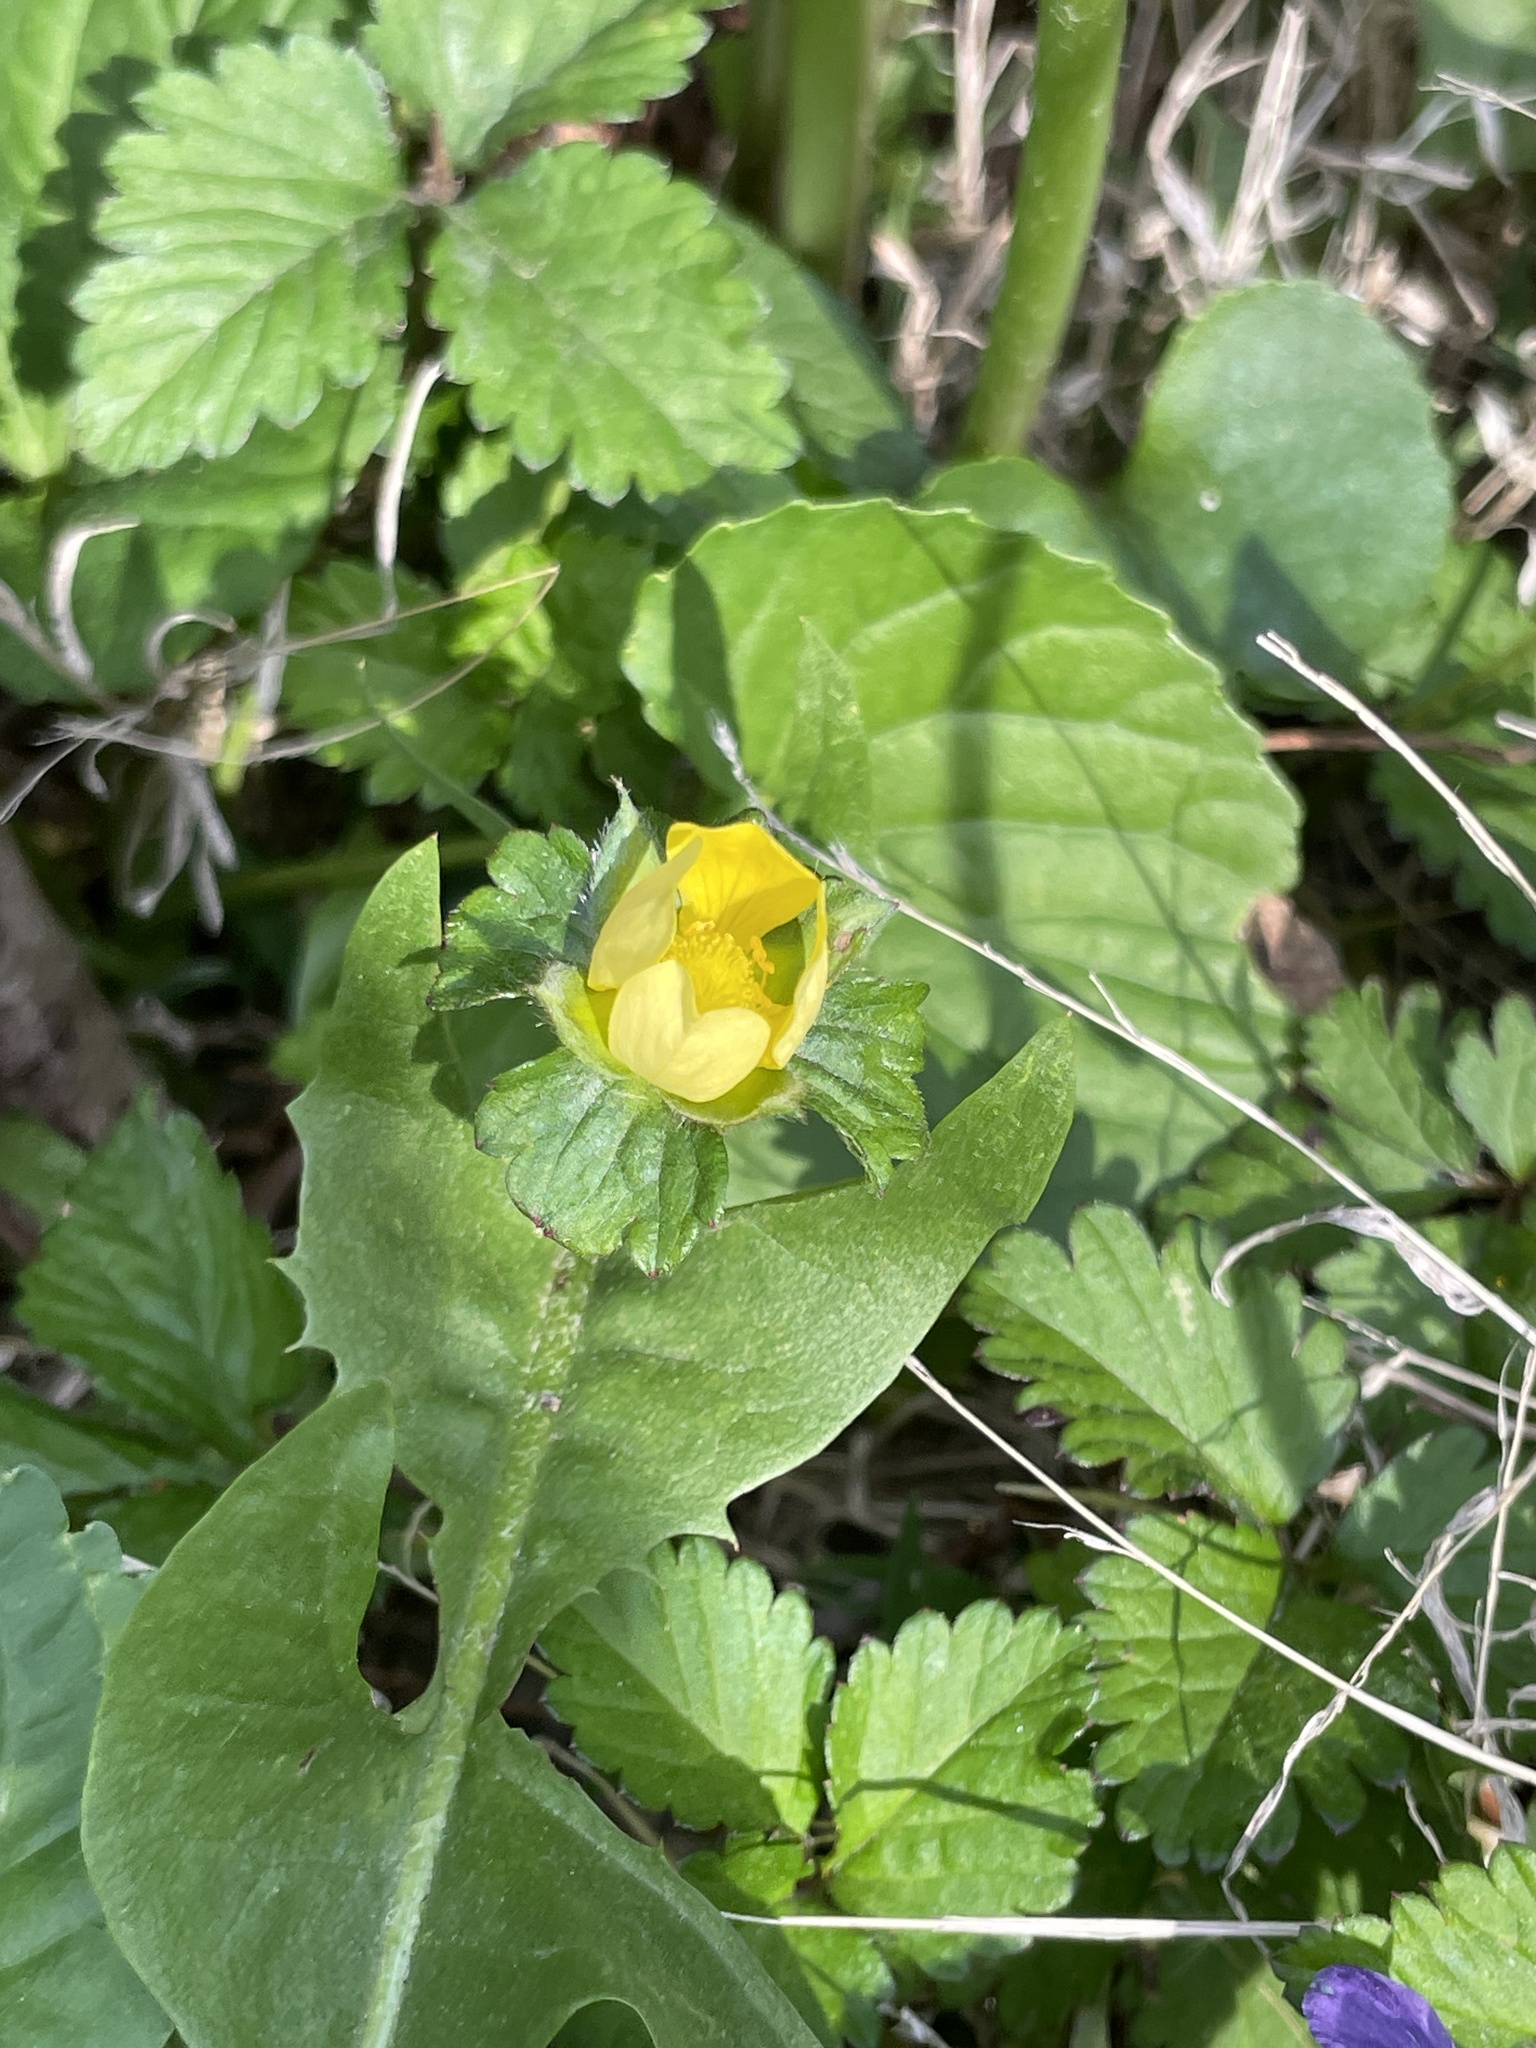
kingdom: Plantae
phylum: Tracheophyta
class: Magnoliopsida
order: Rosales
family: Rosaceae
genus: Potentilla
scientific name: Potentilla indica
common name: Yellow-flowered strawberry
